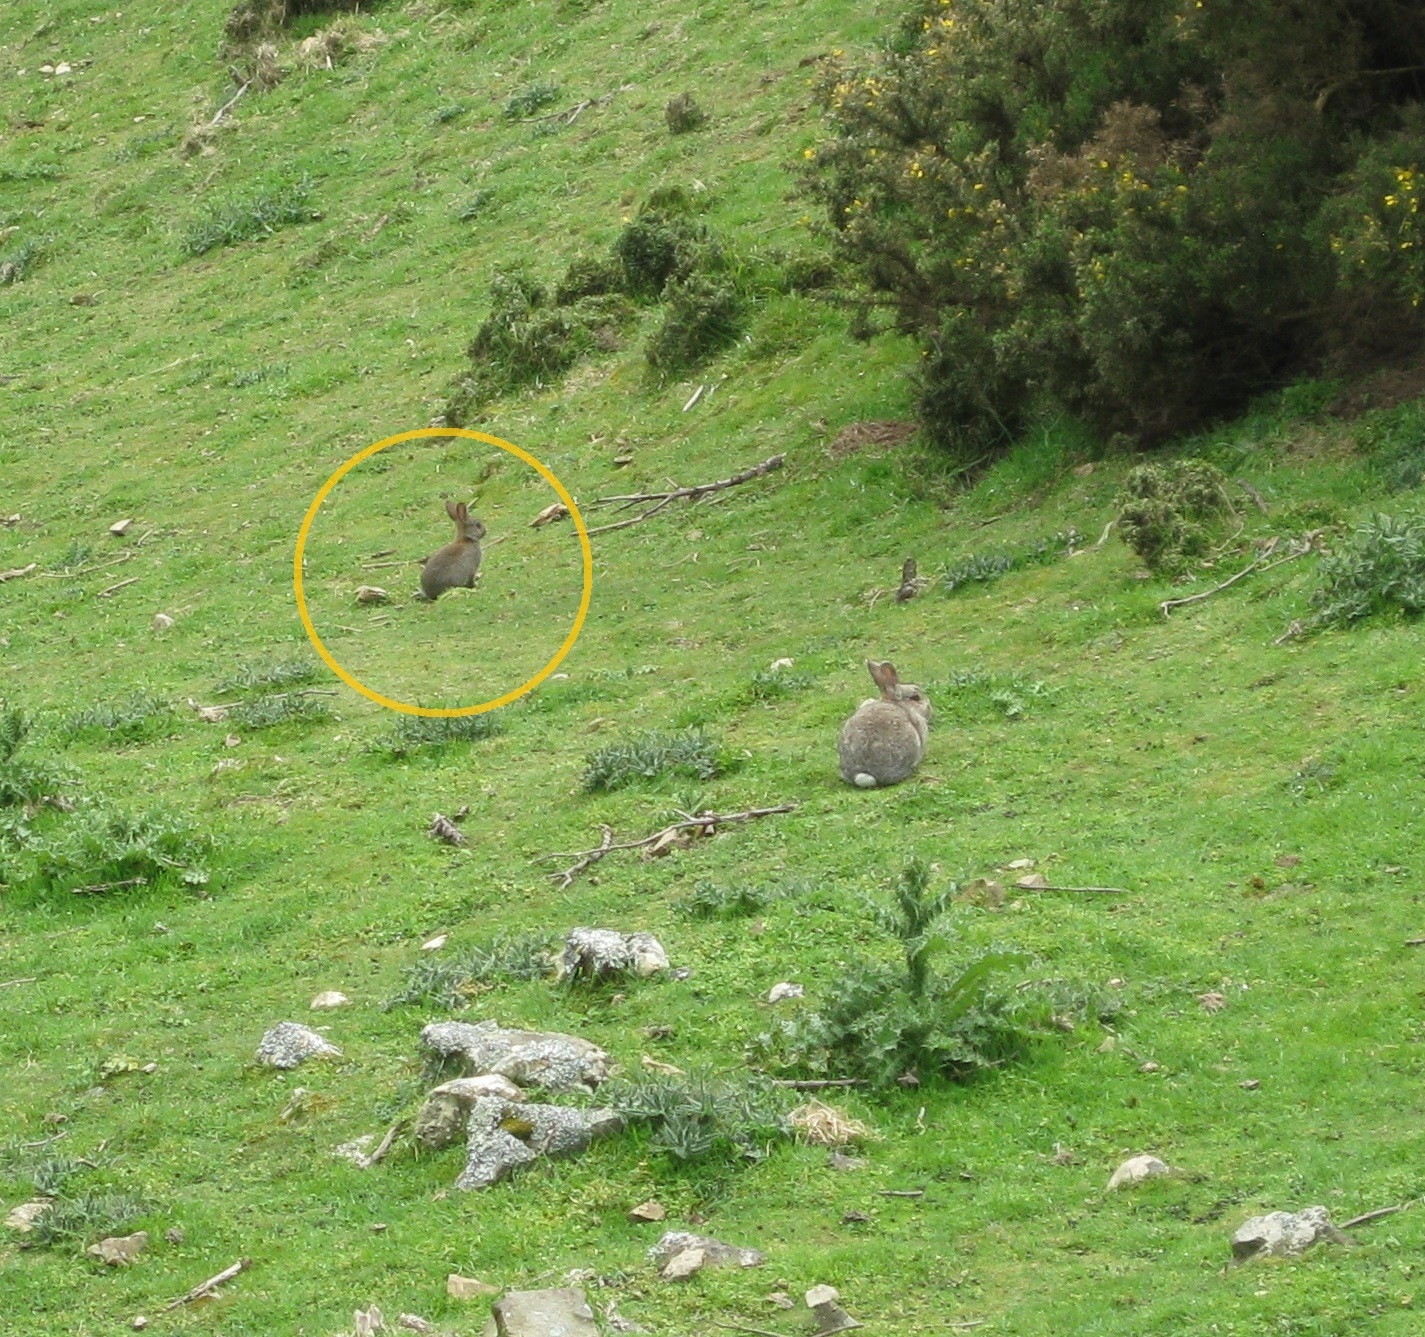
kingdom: Animalia
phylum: Chordata
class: Mammalia
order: Lagomorpha
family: Leporidae
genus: Oryctolagus
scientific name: Oryctolagus cuniculus
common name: European rabbit
